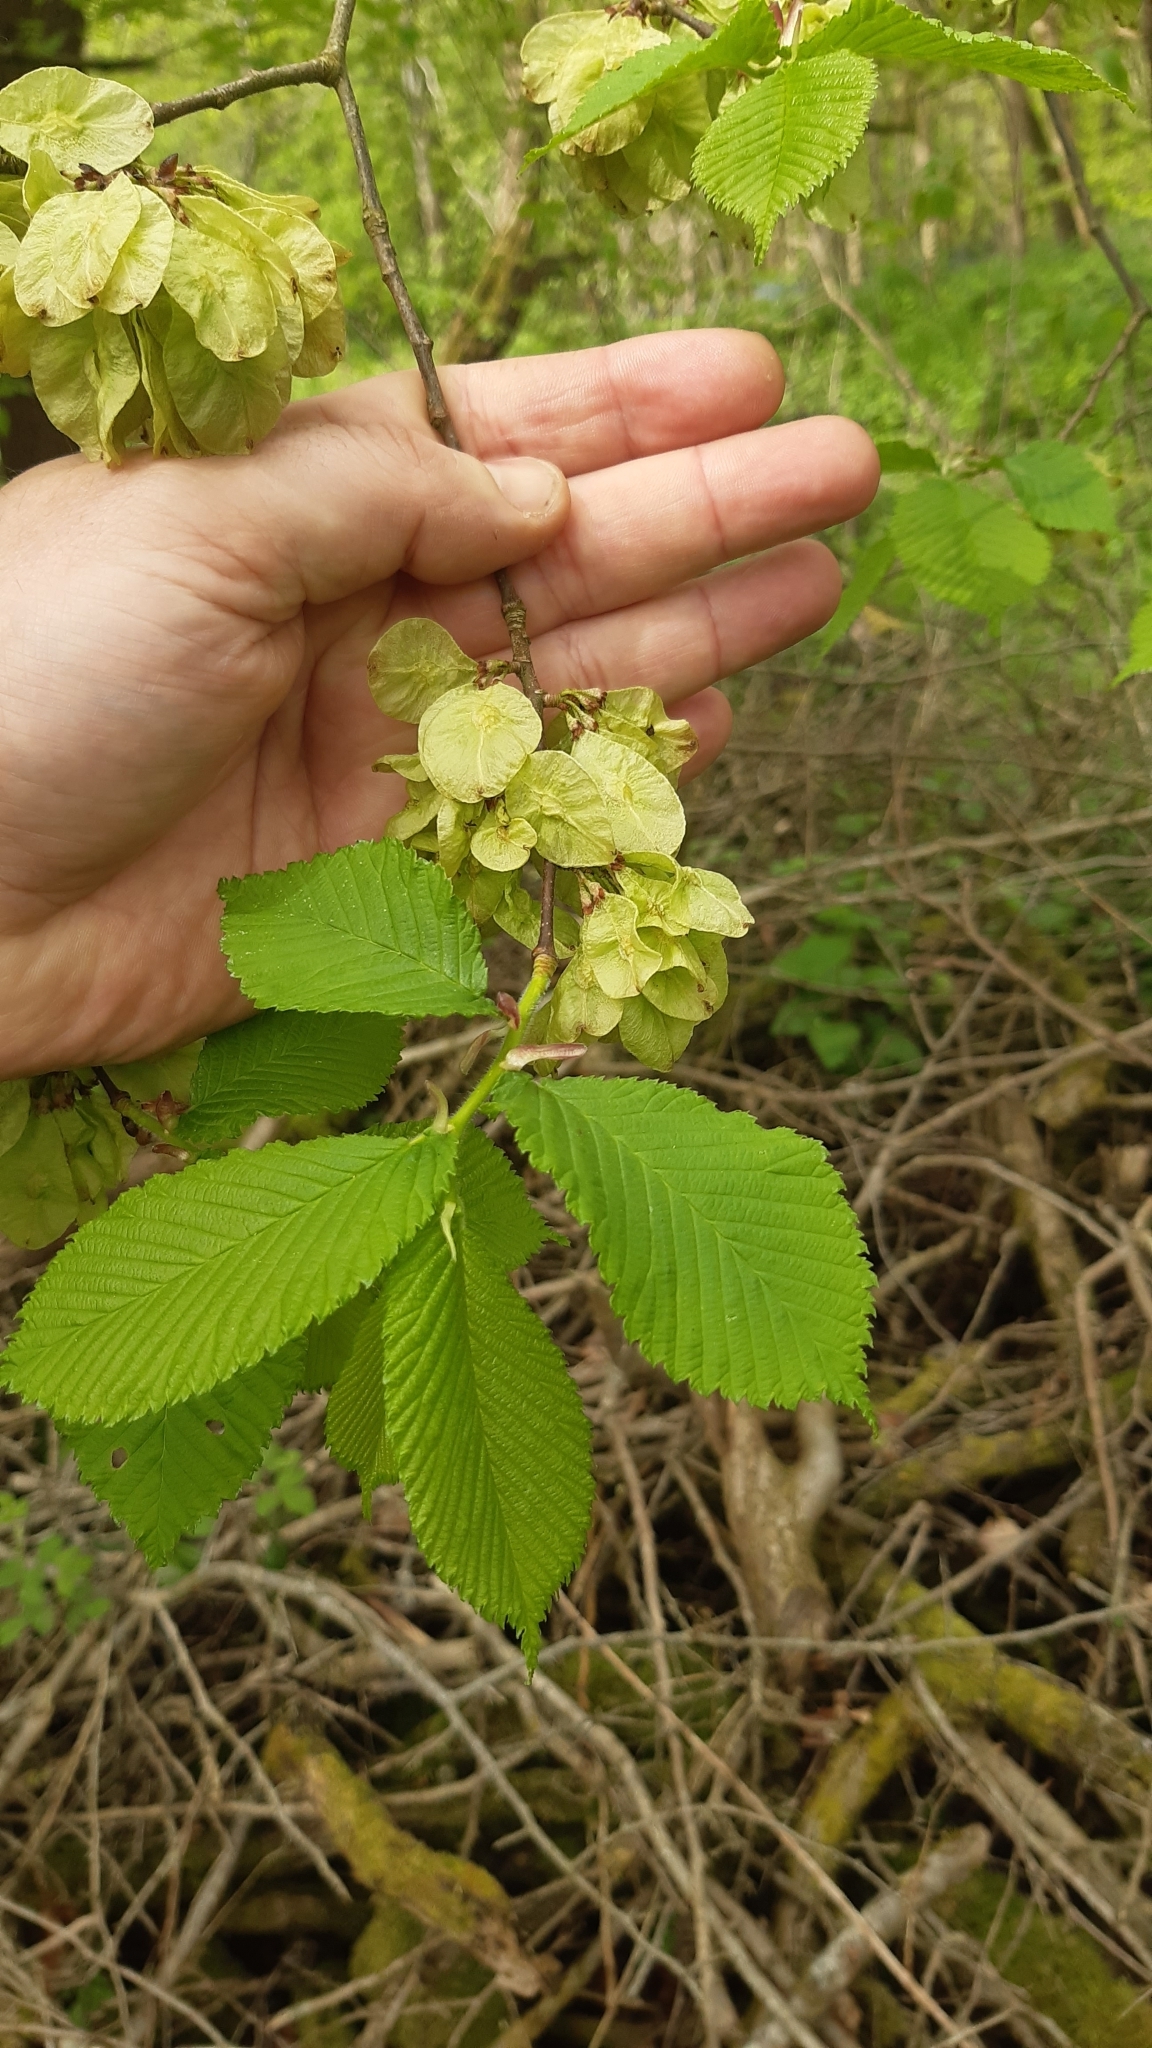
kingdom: Plantae
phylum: Tracheophyta
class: Magnoliopsida
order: Rosales
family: Ulmaceae
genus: Ulmus
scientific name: Ulmus glabra
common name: Wych elm
